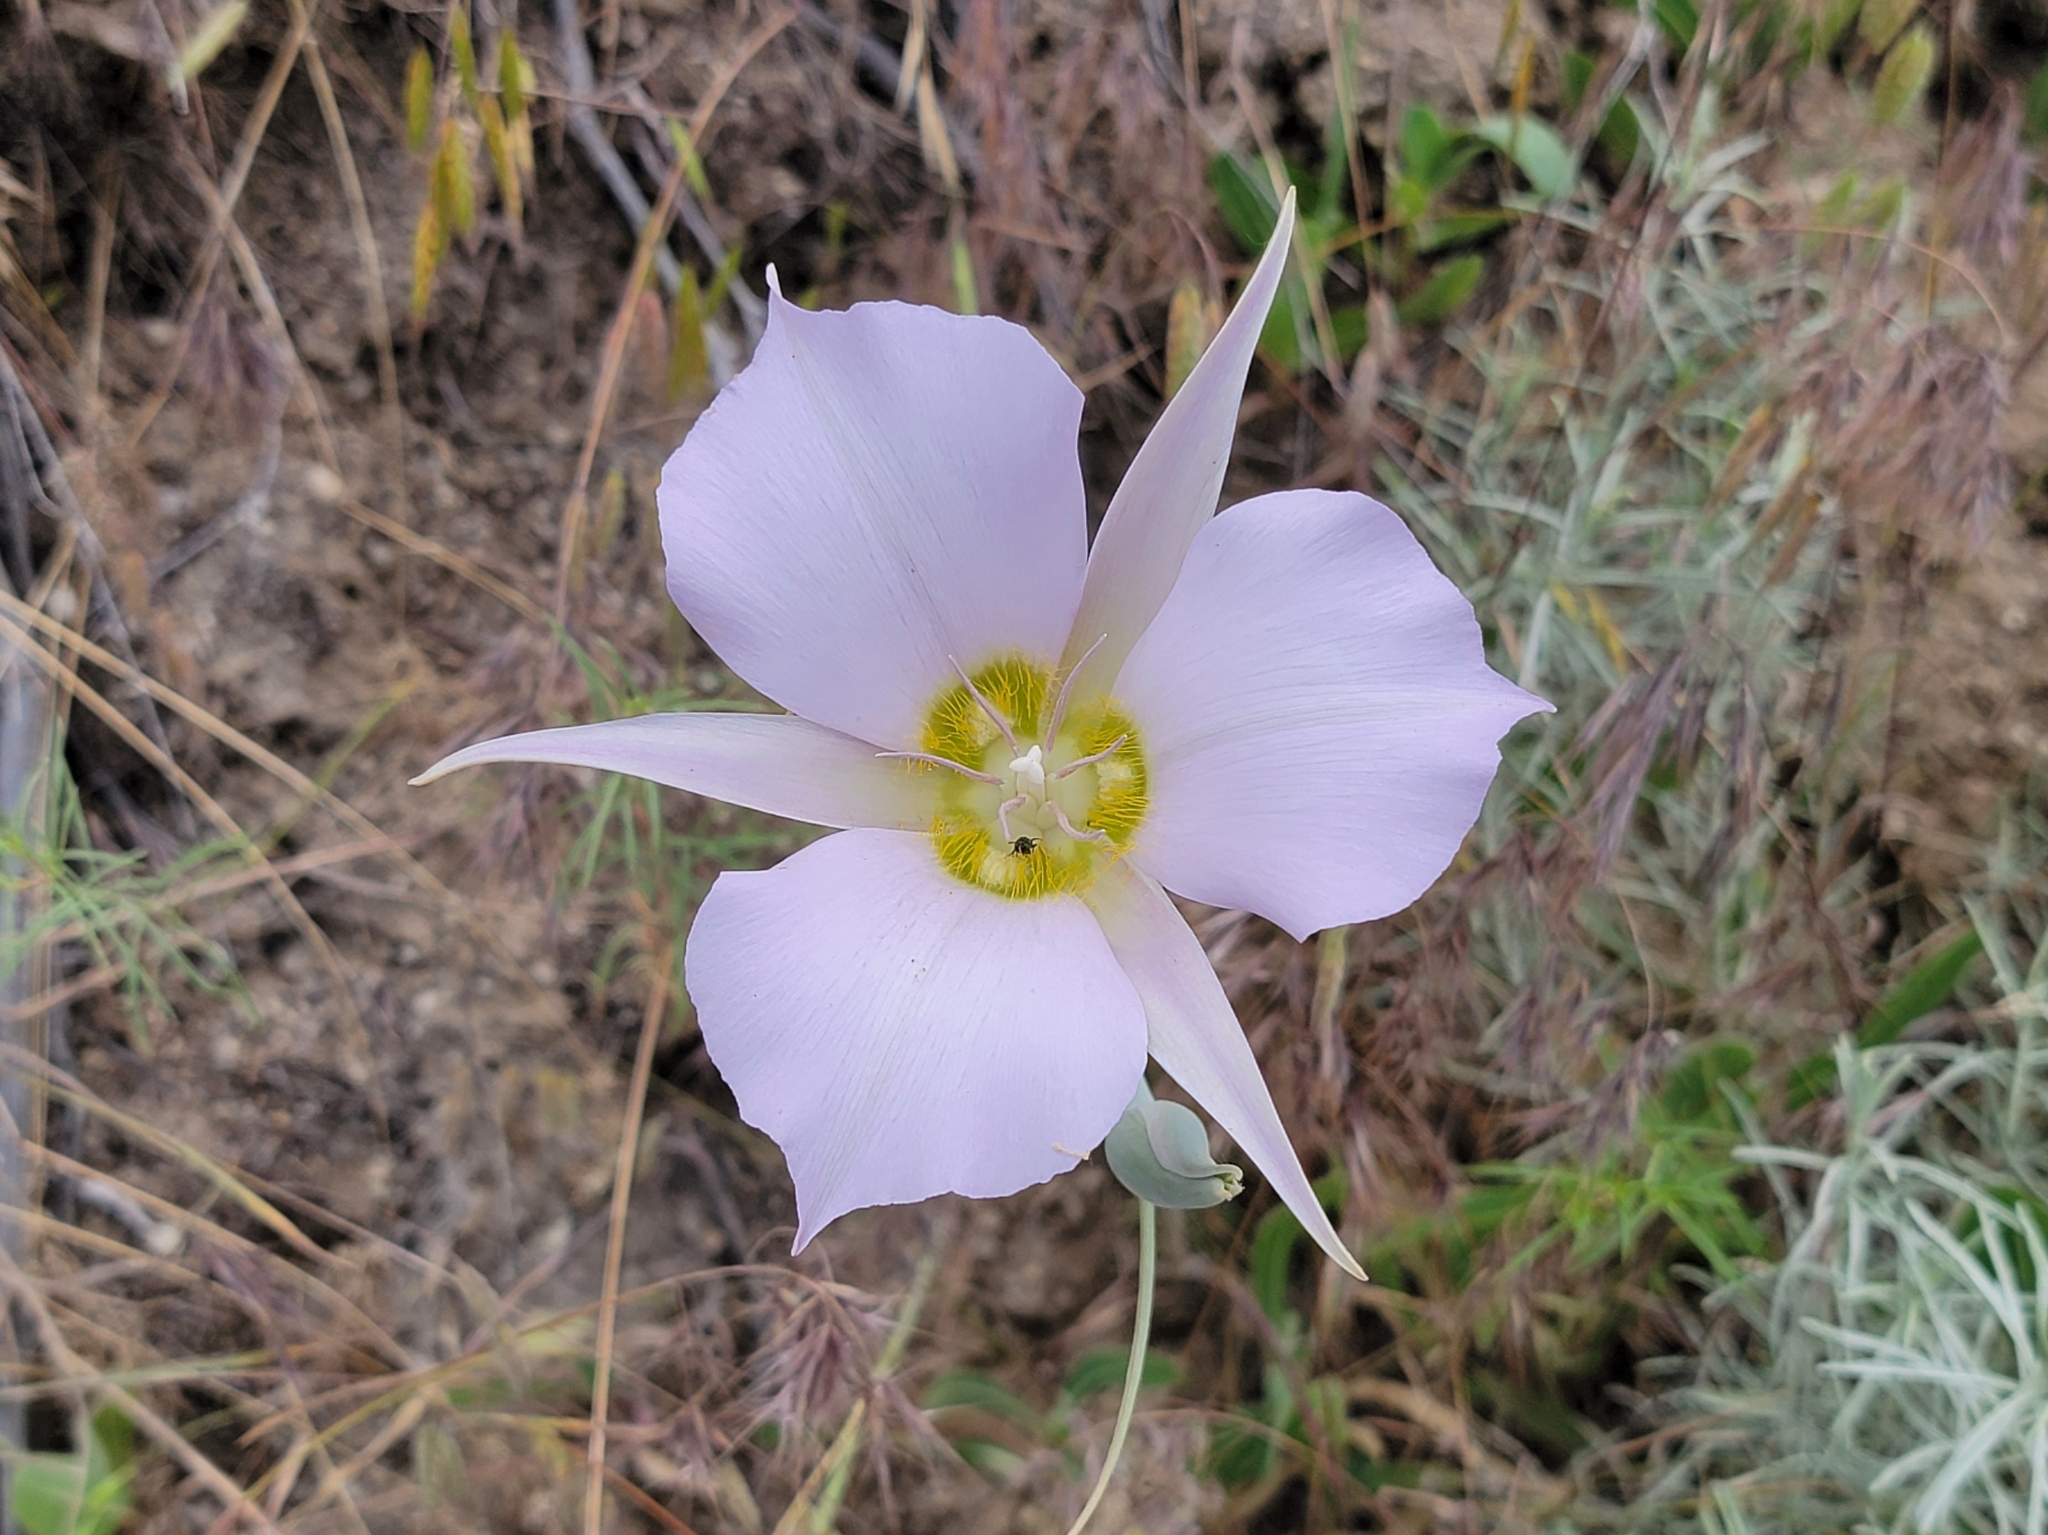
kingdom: Plantae
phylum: Tracheophyta
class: Liliopsida
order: Liliales
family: Liliaceae
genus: Calochortus
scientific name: Calochortus macrocarpus
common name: Green-band mariposa lily
